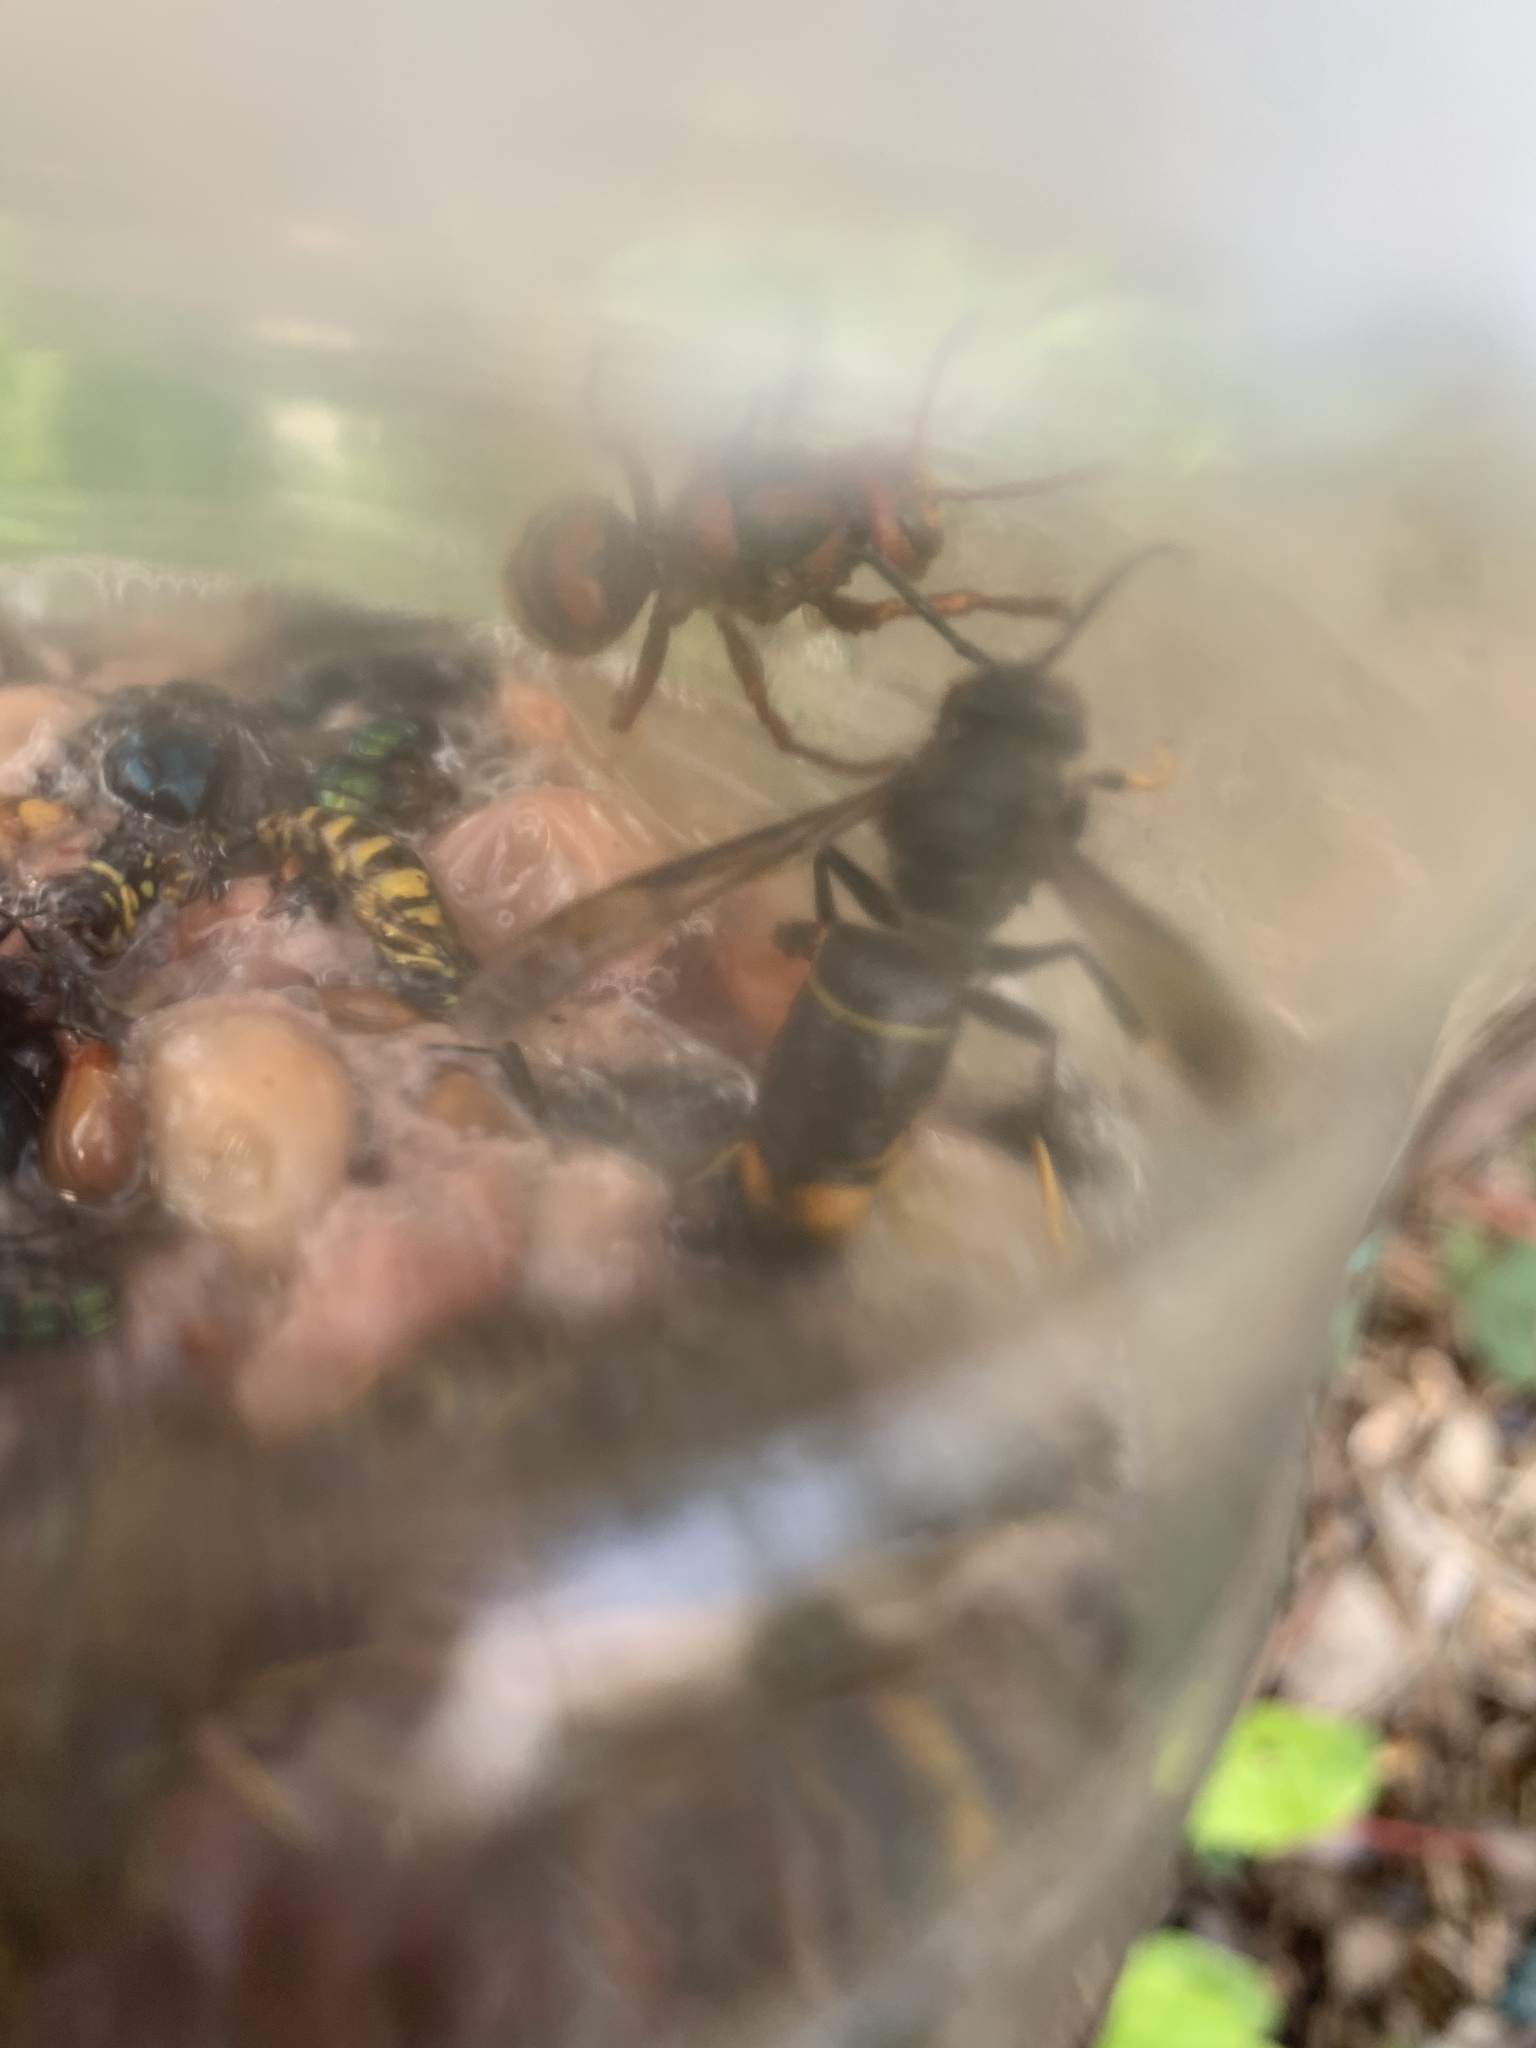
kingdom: Animalia
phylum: Arthropoda
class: Insecta
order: Hymenoptera
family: Vespidae
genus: Vespa
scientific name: Vespa velutina
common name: Asian hornet
